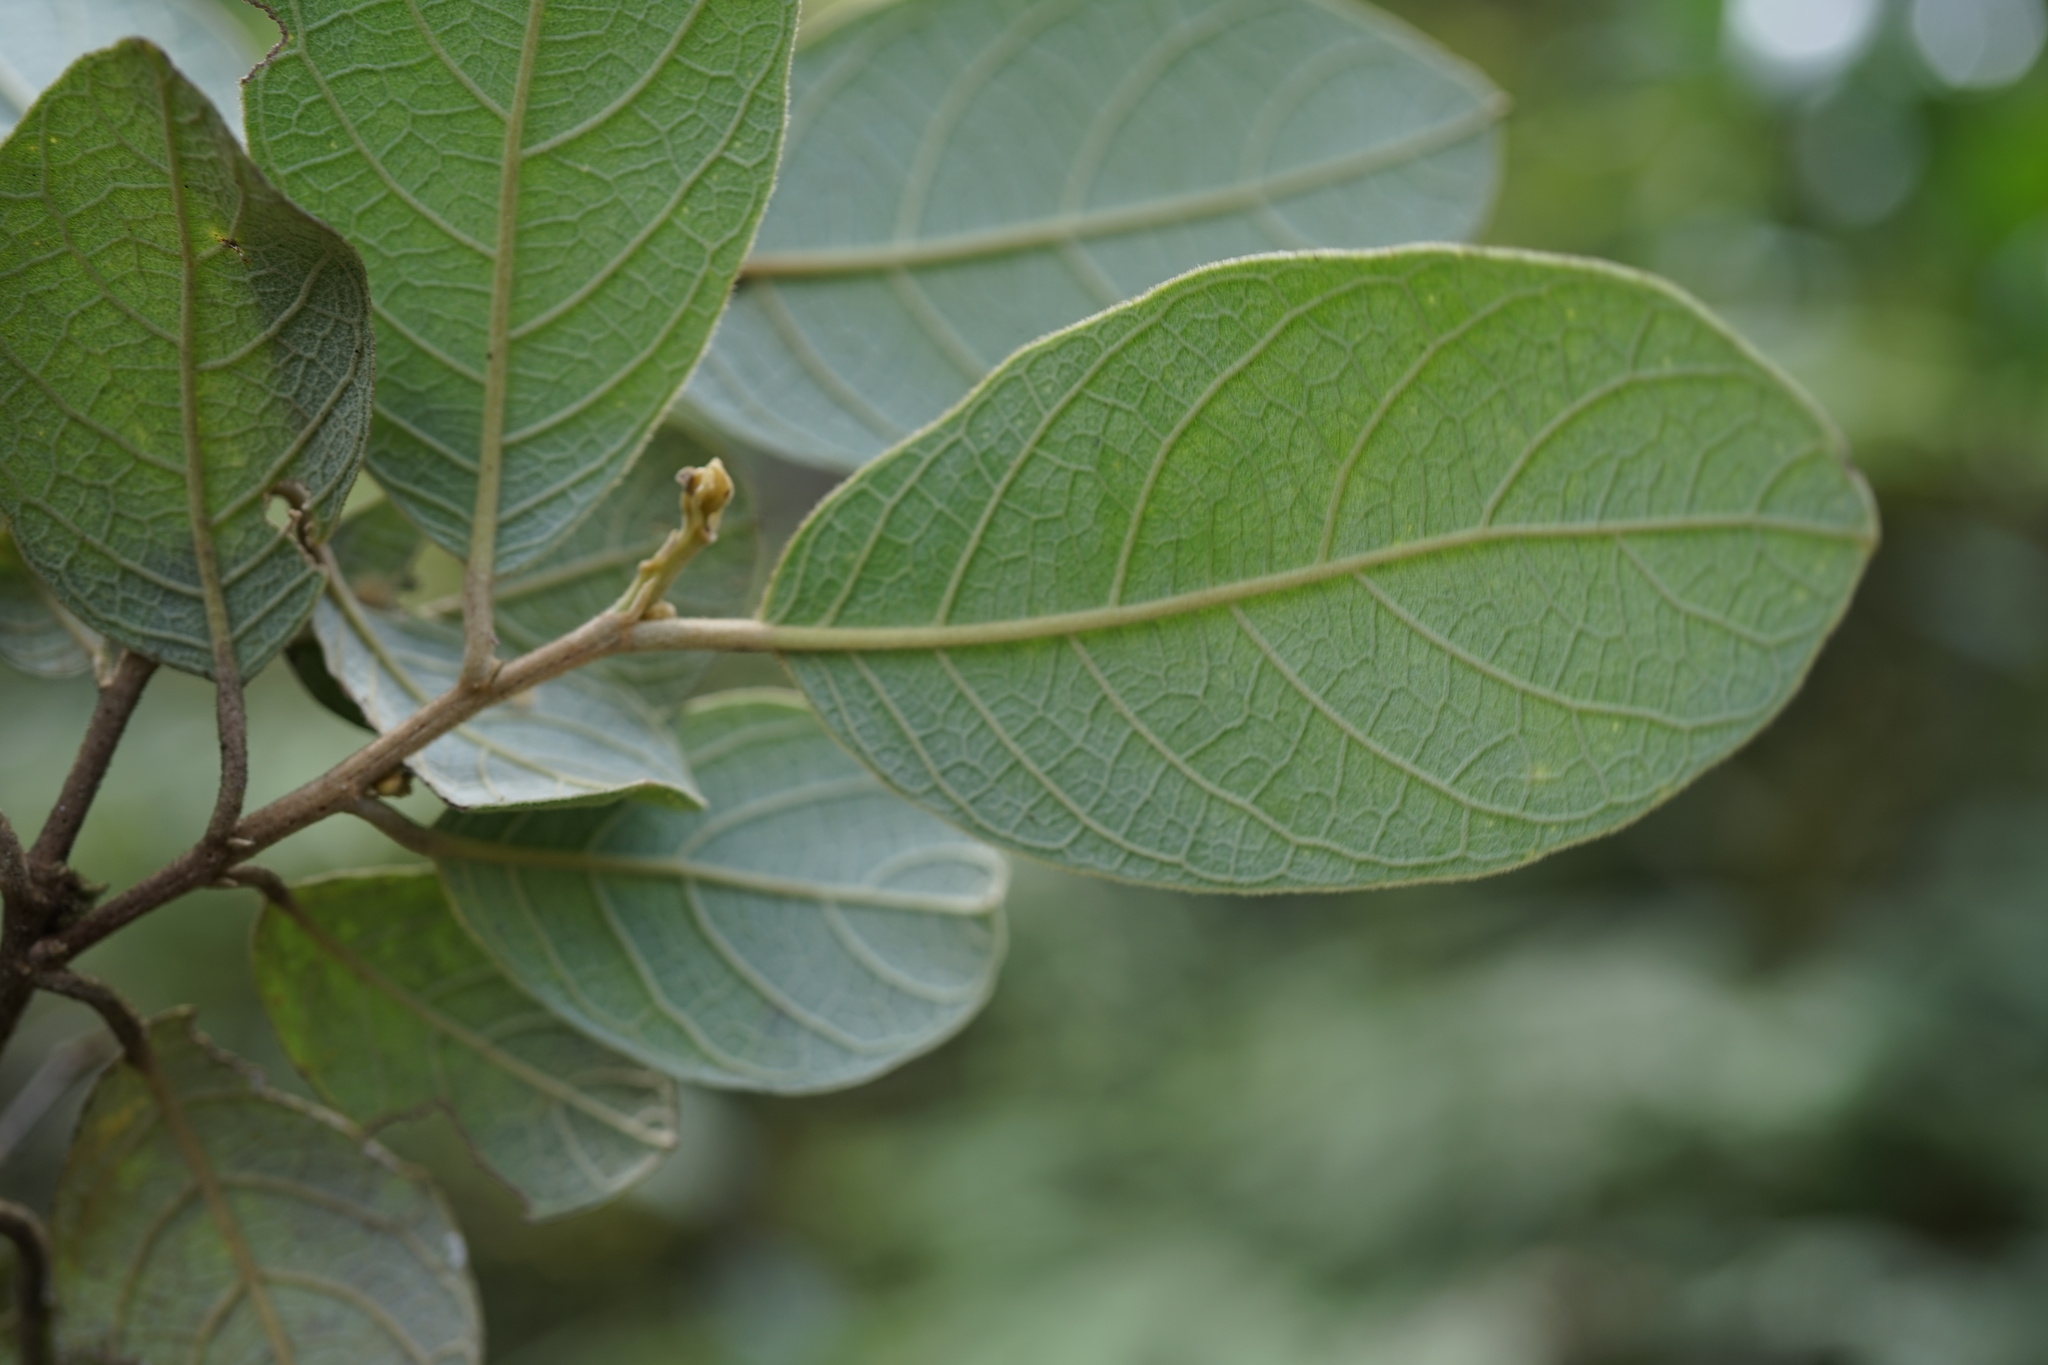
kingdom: Plantae
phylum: Tracheophyta
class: Magnoliopsida
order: Malpighiales
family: Dichapetalaceae
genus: Dichapetalum
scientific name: Dichapetalum leucosia
